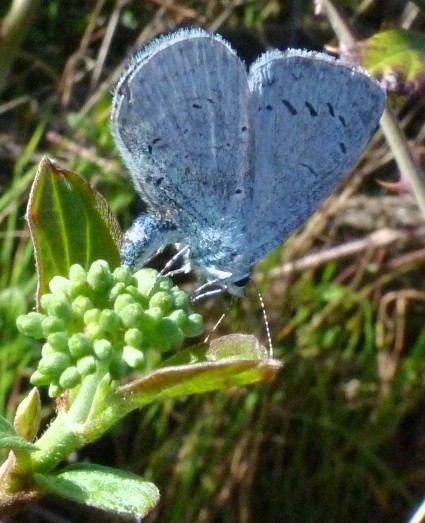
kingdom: Animalia
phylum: Arthropoda
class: Insecta
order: Lepidoptera
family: Lycaenidae
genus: Celastrina
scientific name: Celastrina argiolus
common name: Holly blue
